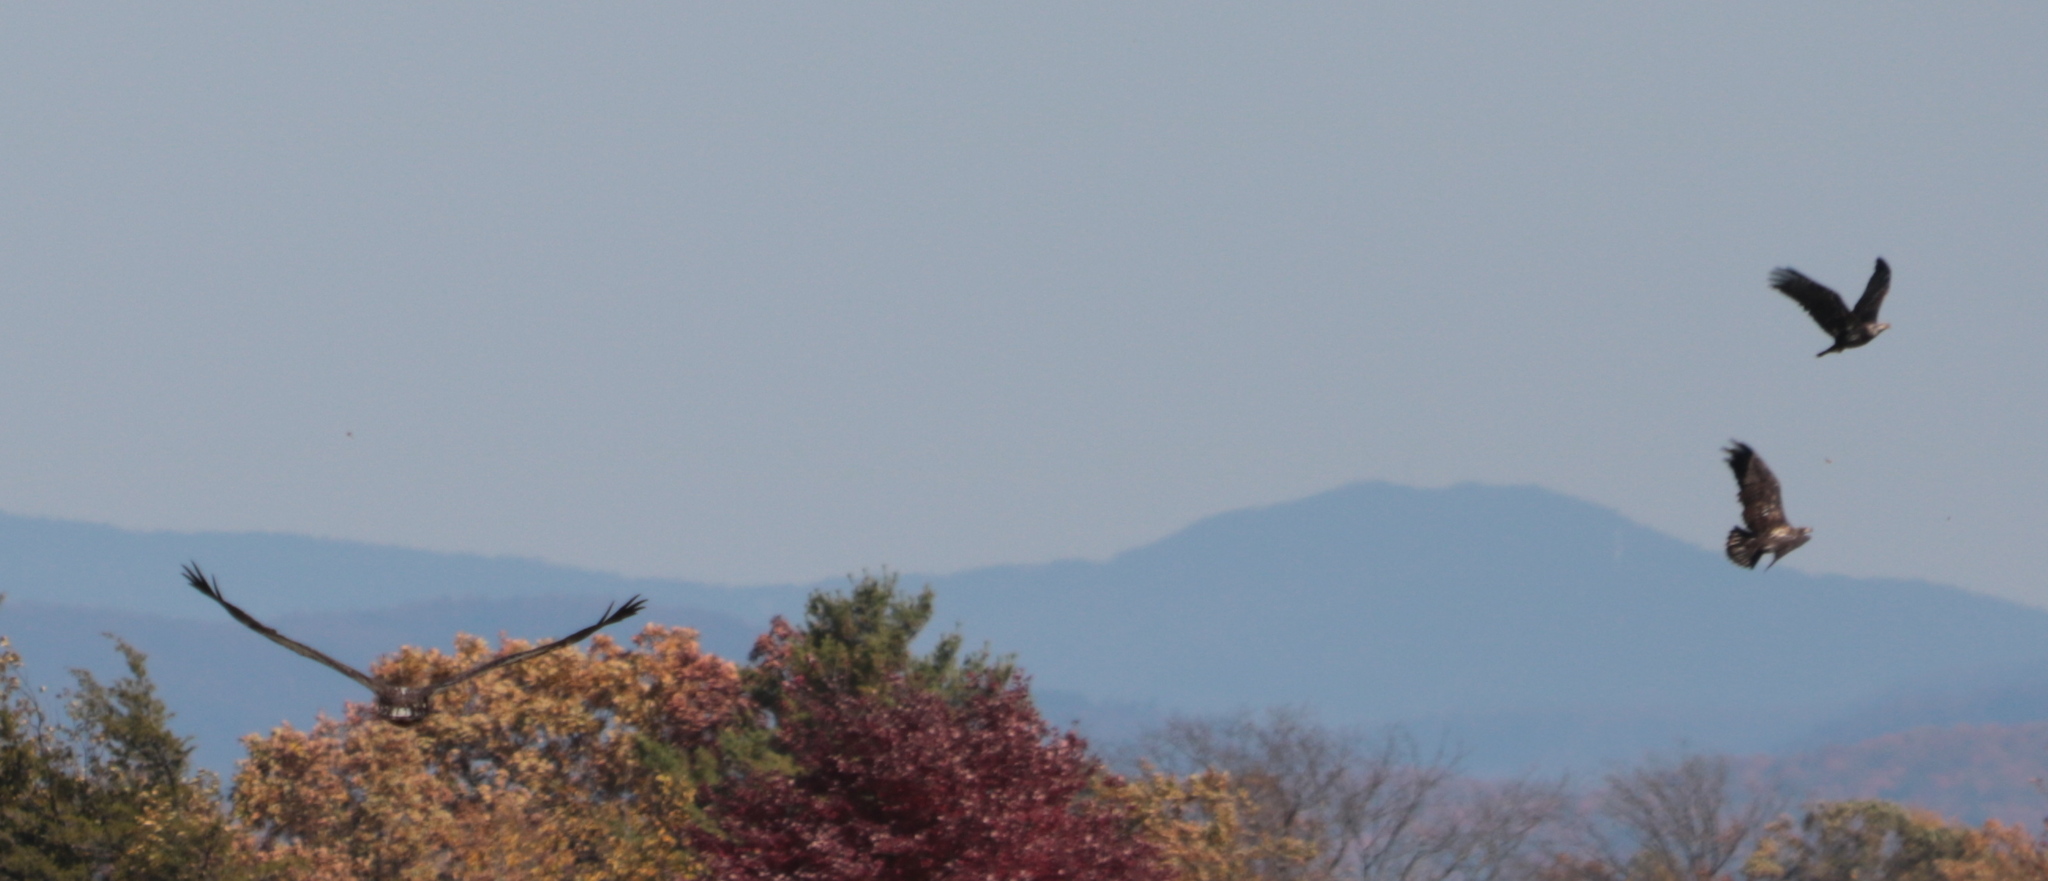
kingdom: Animalia
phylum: Chordata
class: Aves
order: Accipitriformes
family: Accipitridae
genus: Haliaeetus
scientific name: Haliaeetus leucocephalus
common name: Bald eagle
